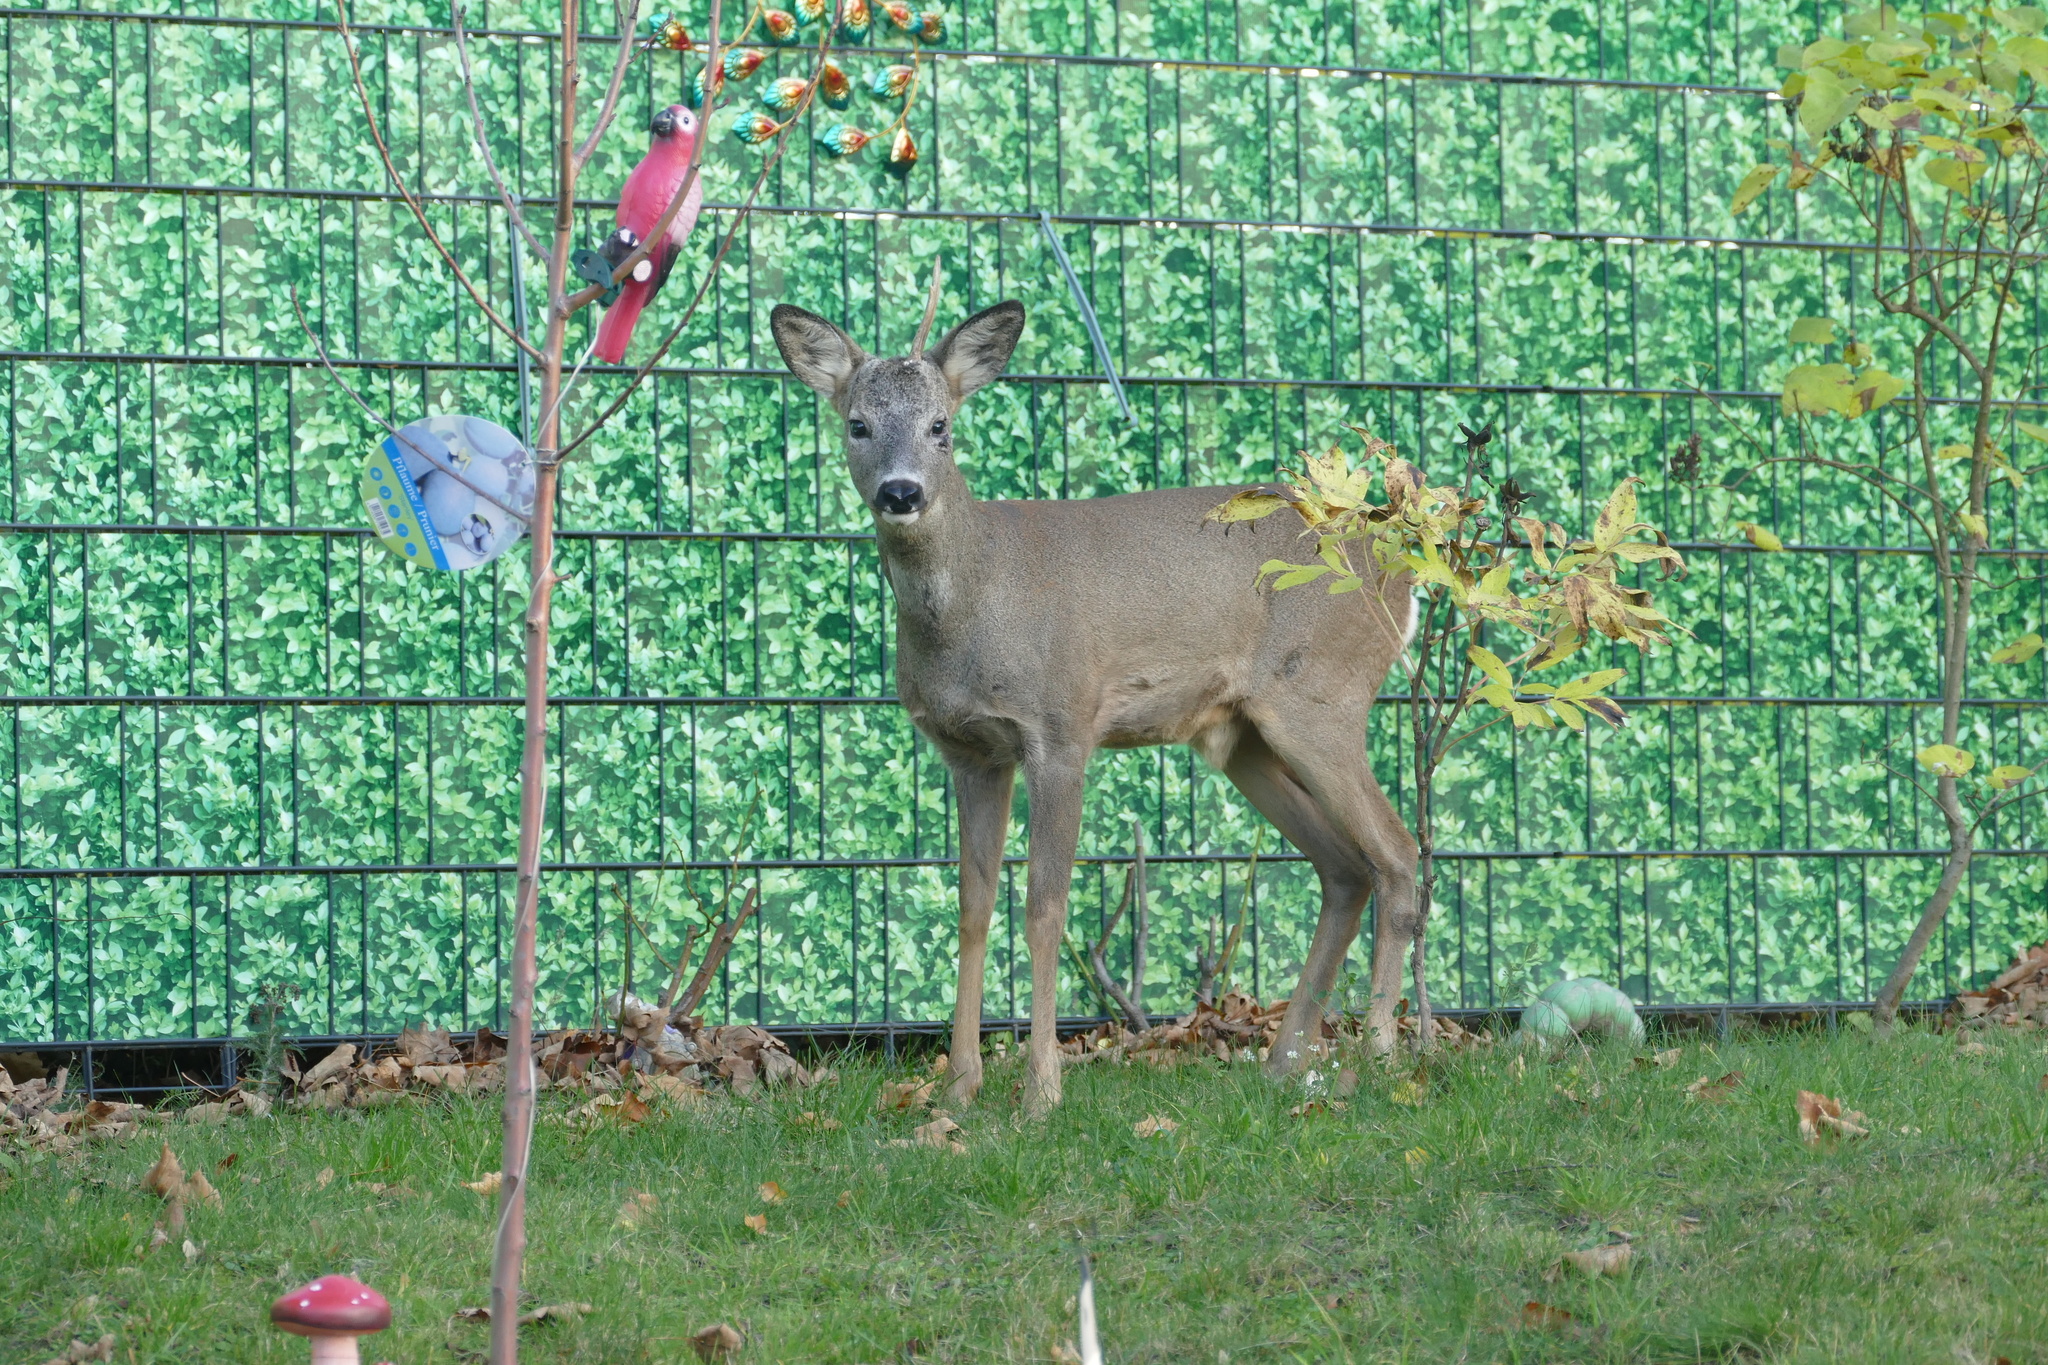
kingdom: Animalia
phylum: Chordata
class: Mammalia
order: Artiodactyla
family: Cervidae
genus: Capreolus
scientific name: Capreolus capreolus
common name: Western roe deer
